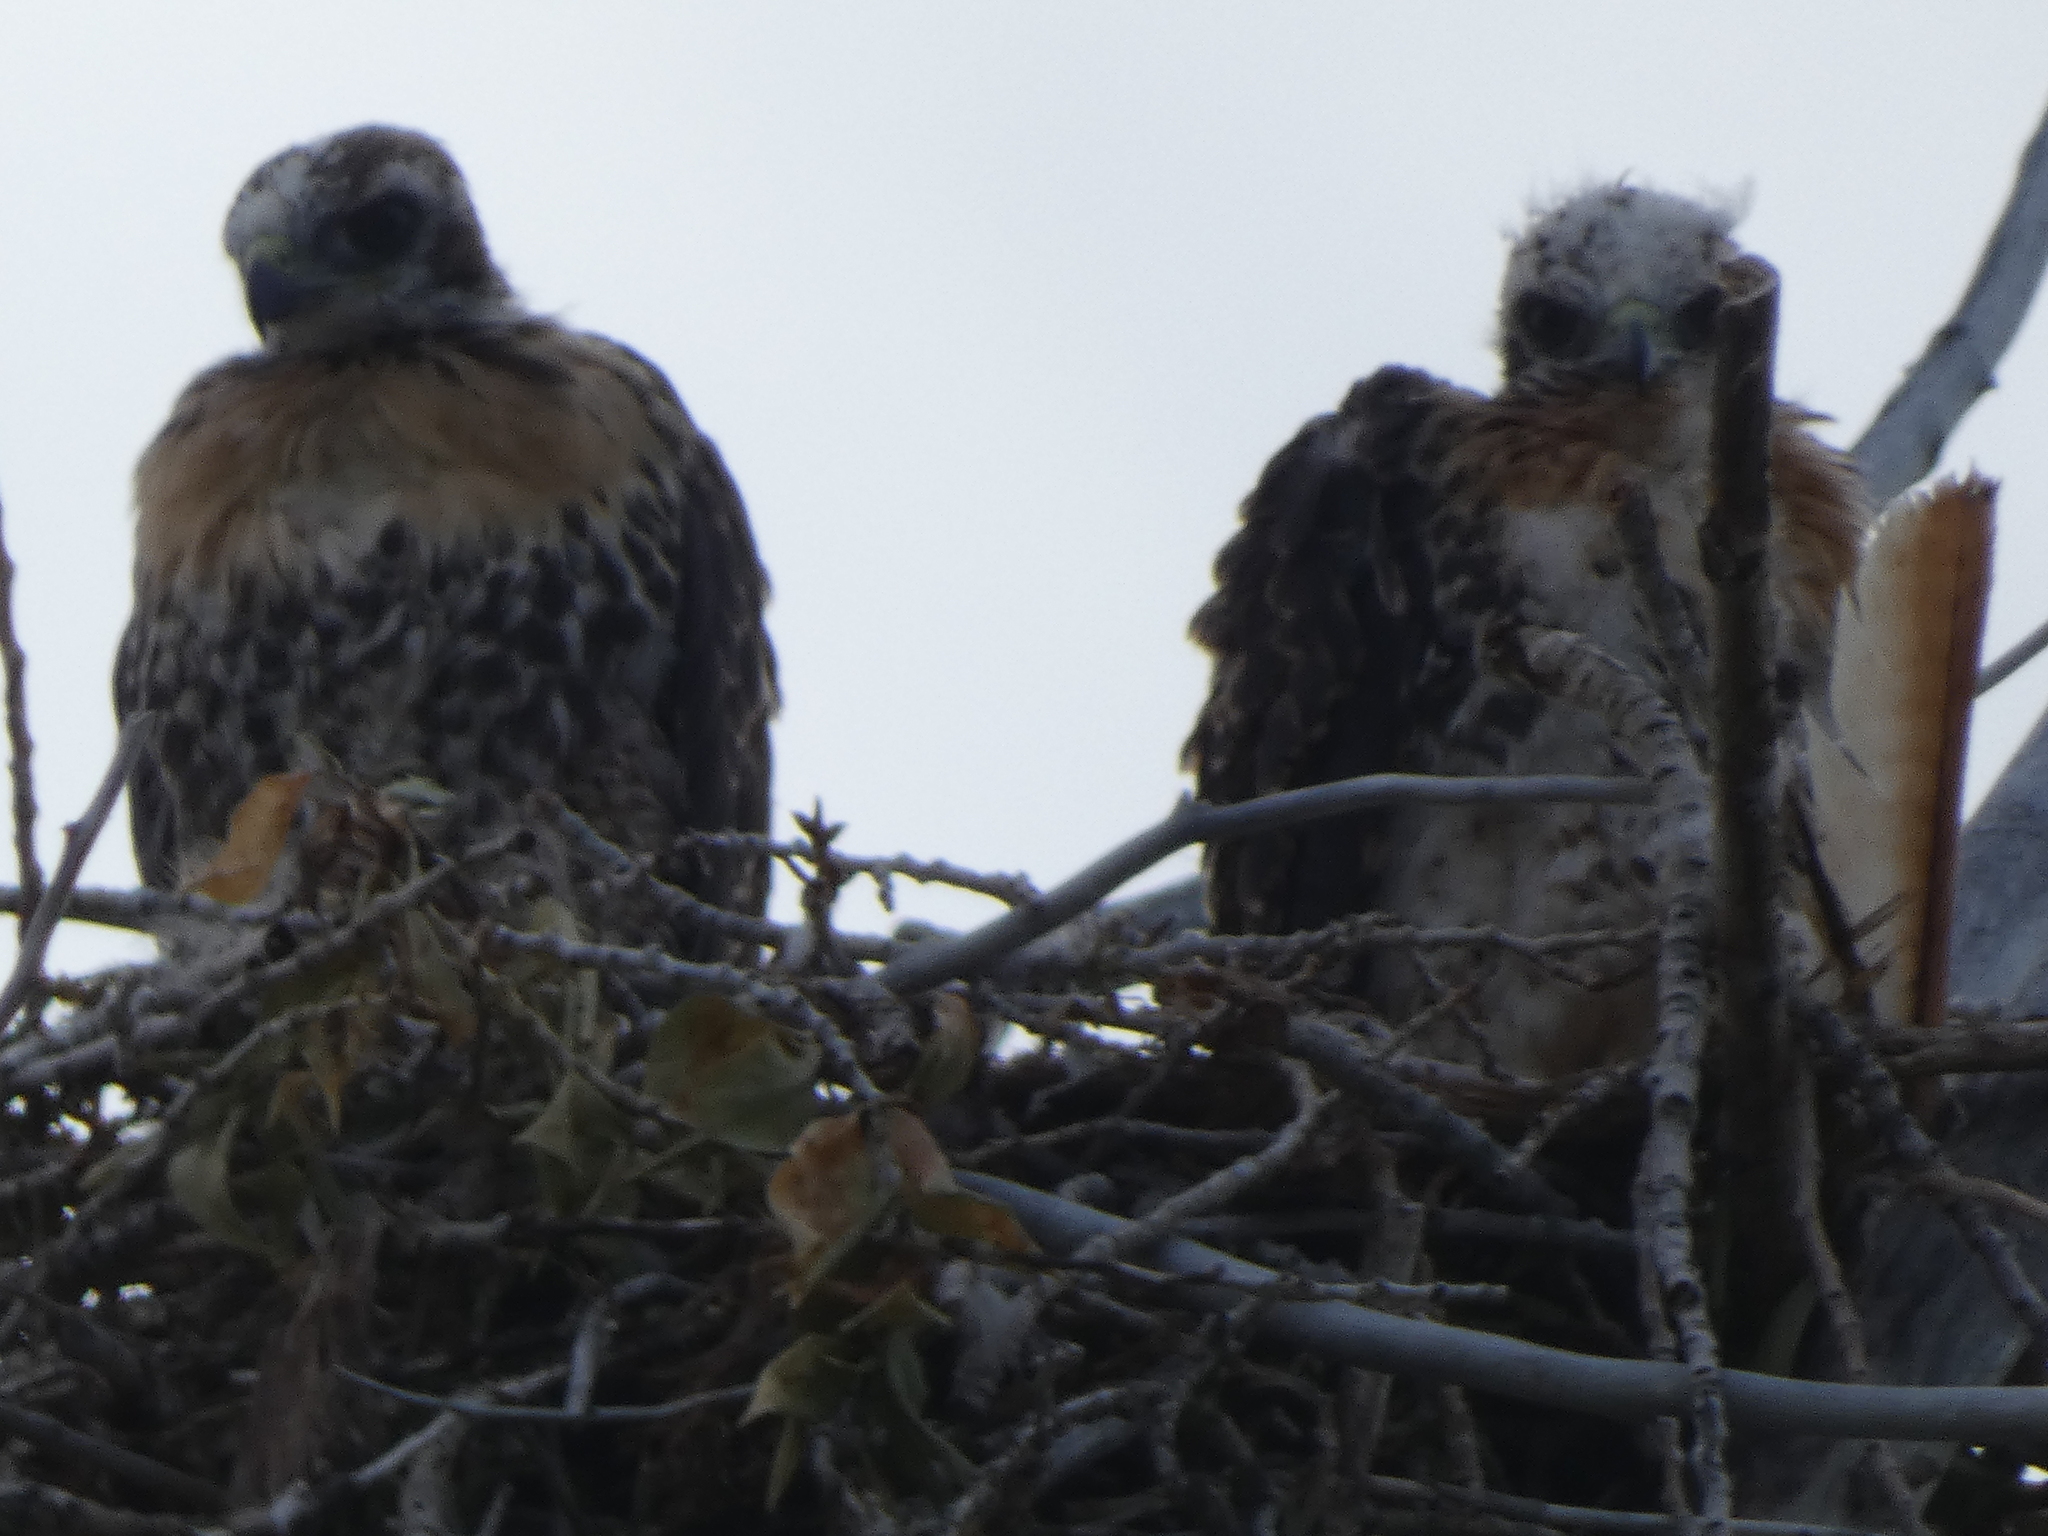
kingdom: Animalia
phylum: Chordata
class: Aves
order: Accipitriformes
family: Accipitridae
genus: Buteo
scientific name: Buteo jamaicensis
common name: Red-tailed hawk
